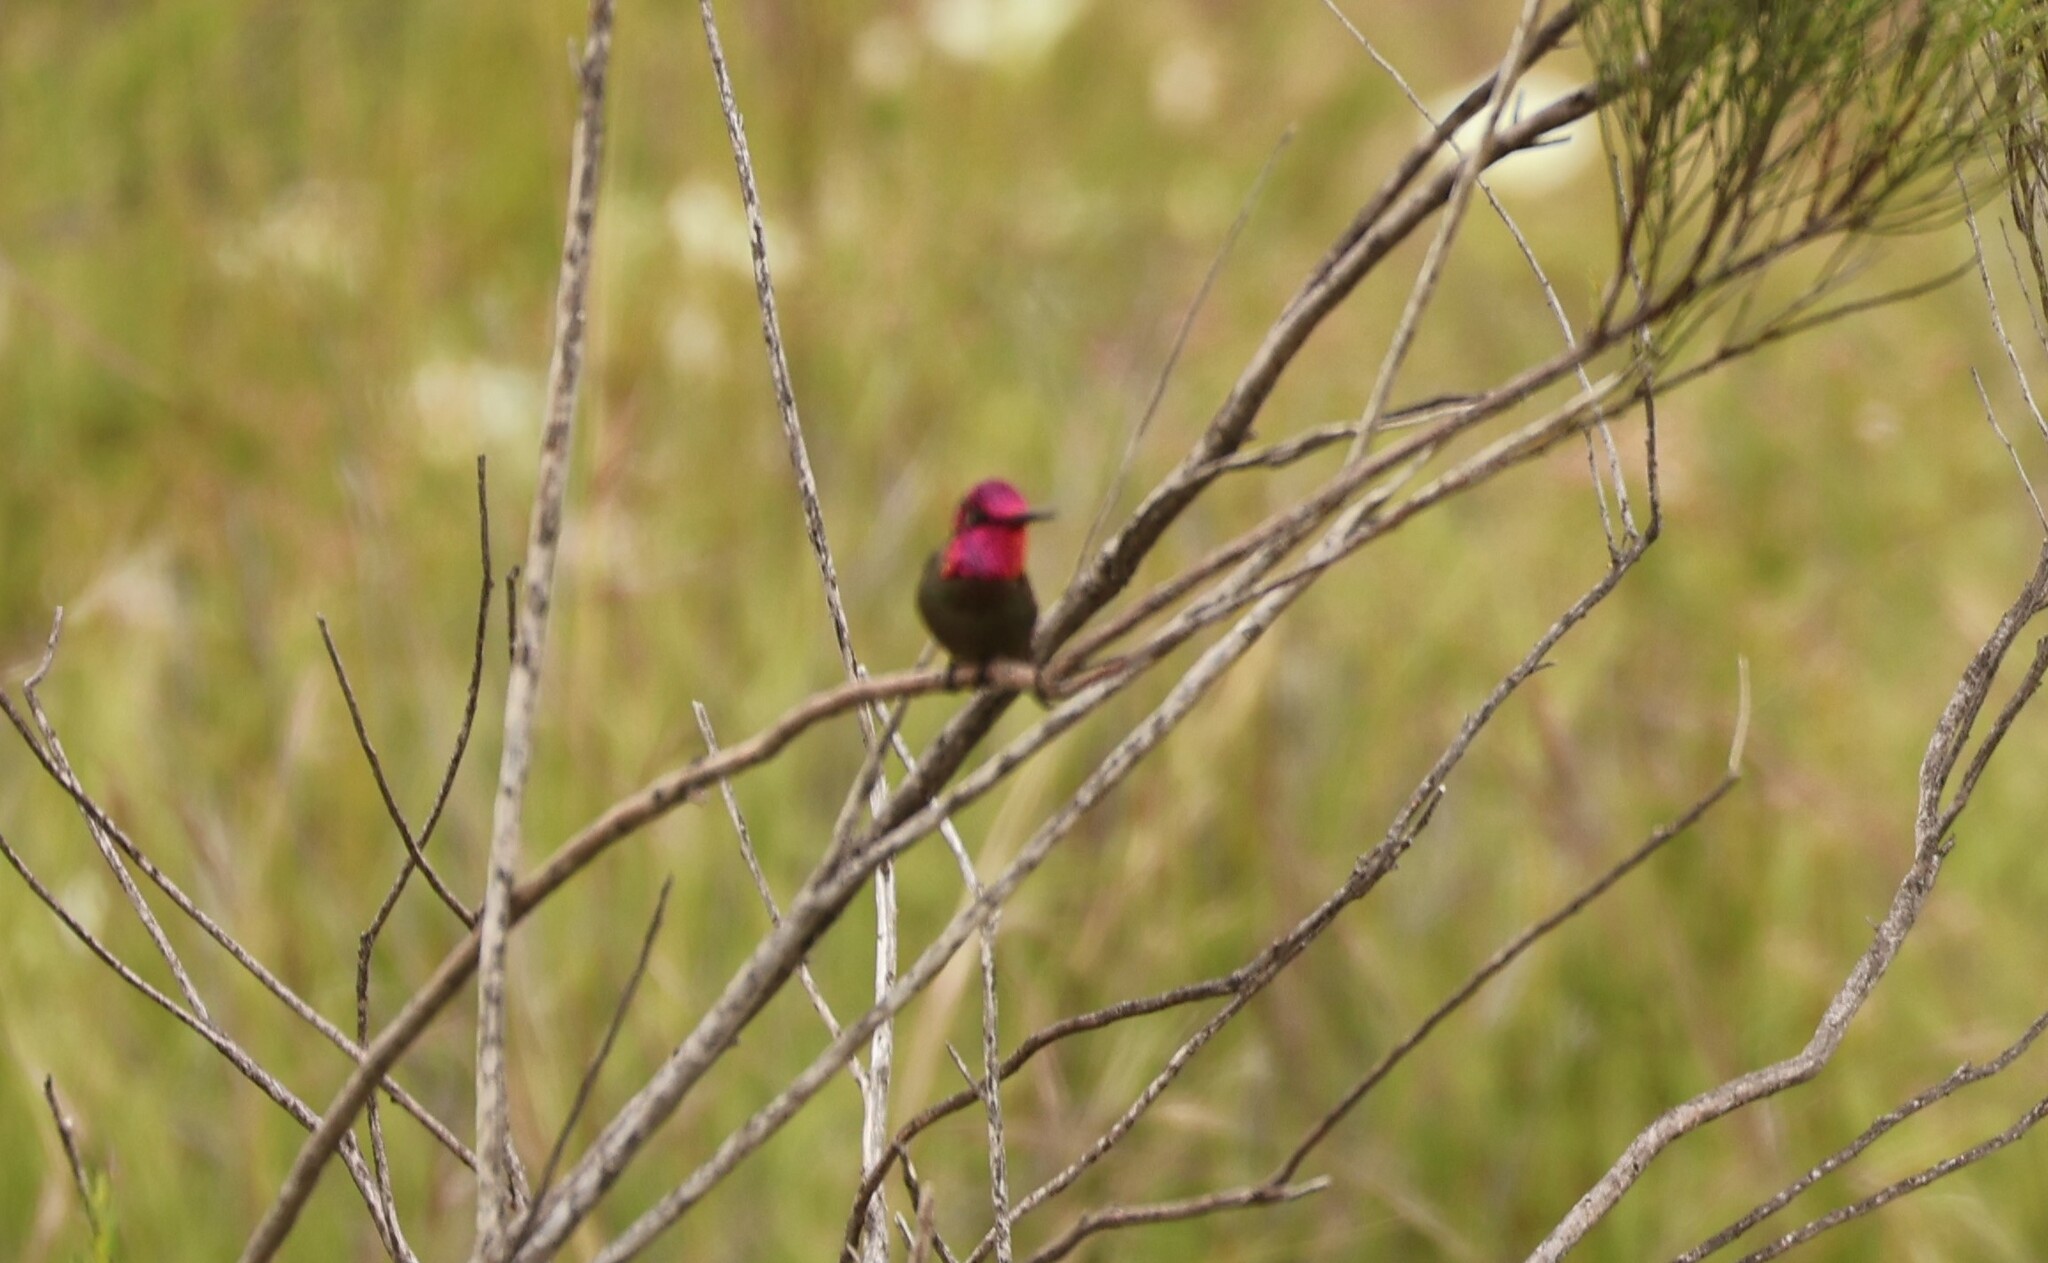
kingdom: Animalia
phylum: Chordata
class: Aves
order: Apodiformes
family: Trochilidae
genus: Calypte
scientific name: Calypte anna
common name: Anna's hummingbird
